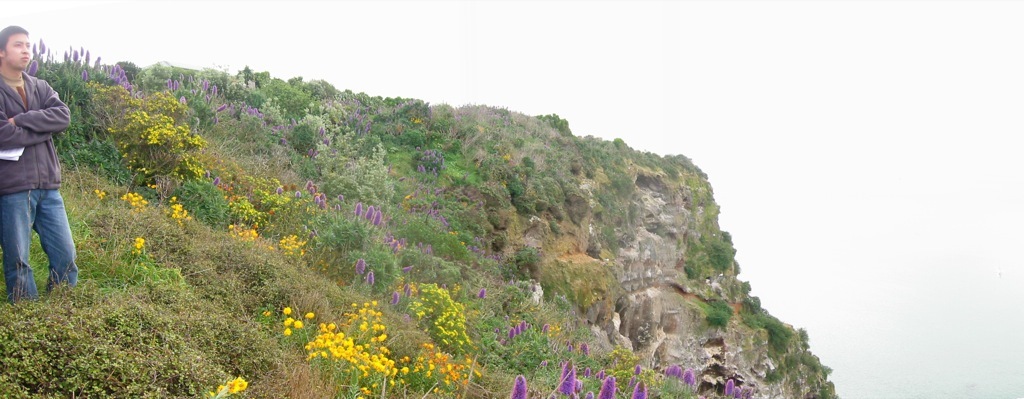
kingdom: Plantae
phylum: Tracheophyta
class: Magnoliopsida
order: Boraginales
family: Boraginaceae
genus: Echium
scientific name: Echium candicans
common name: Pride of madeira
